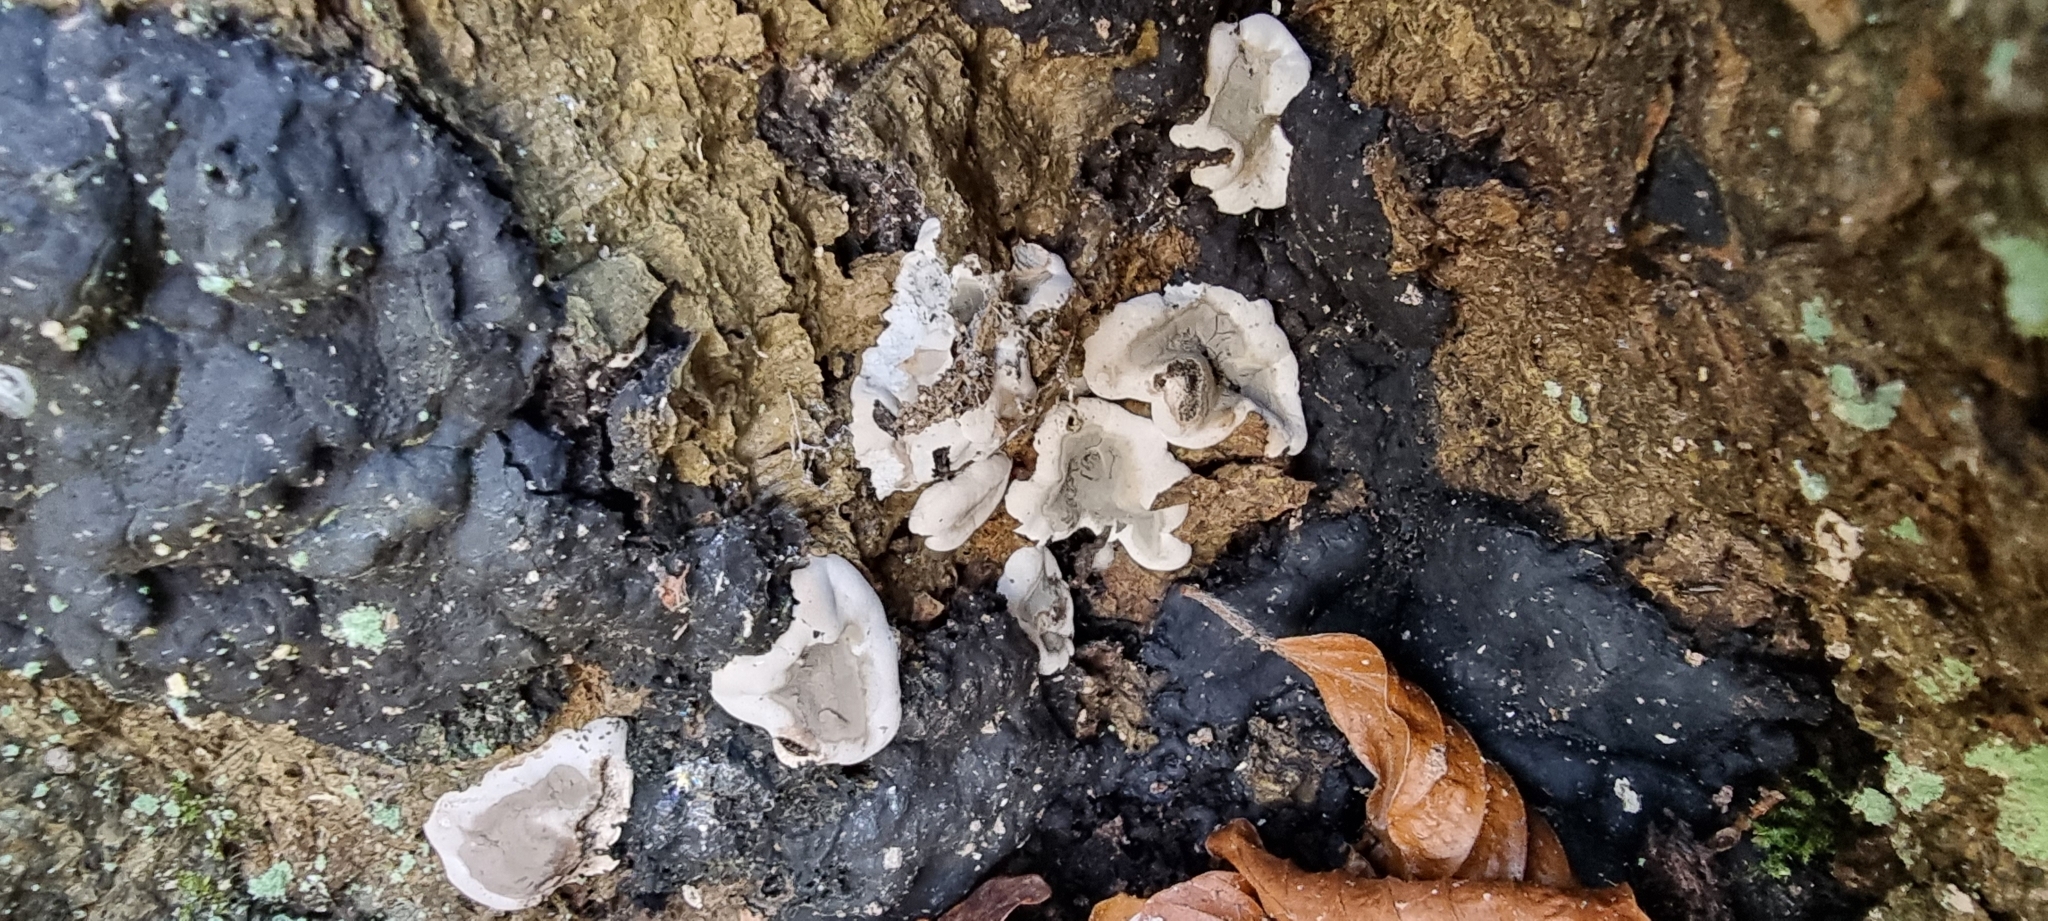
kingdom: Fungi
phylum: Ascomycota
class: Sordariomycetes
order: Xylariales
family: Xylariaceae
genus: Kretzschmaria
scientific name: Kretzschmaria deusta
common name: Brittle cinder
